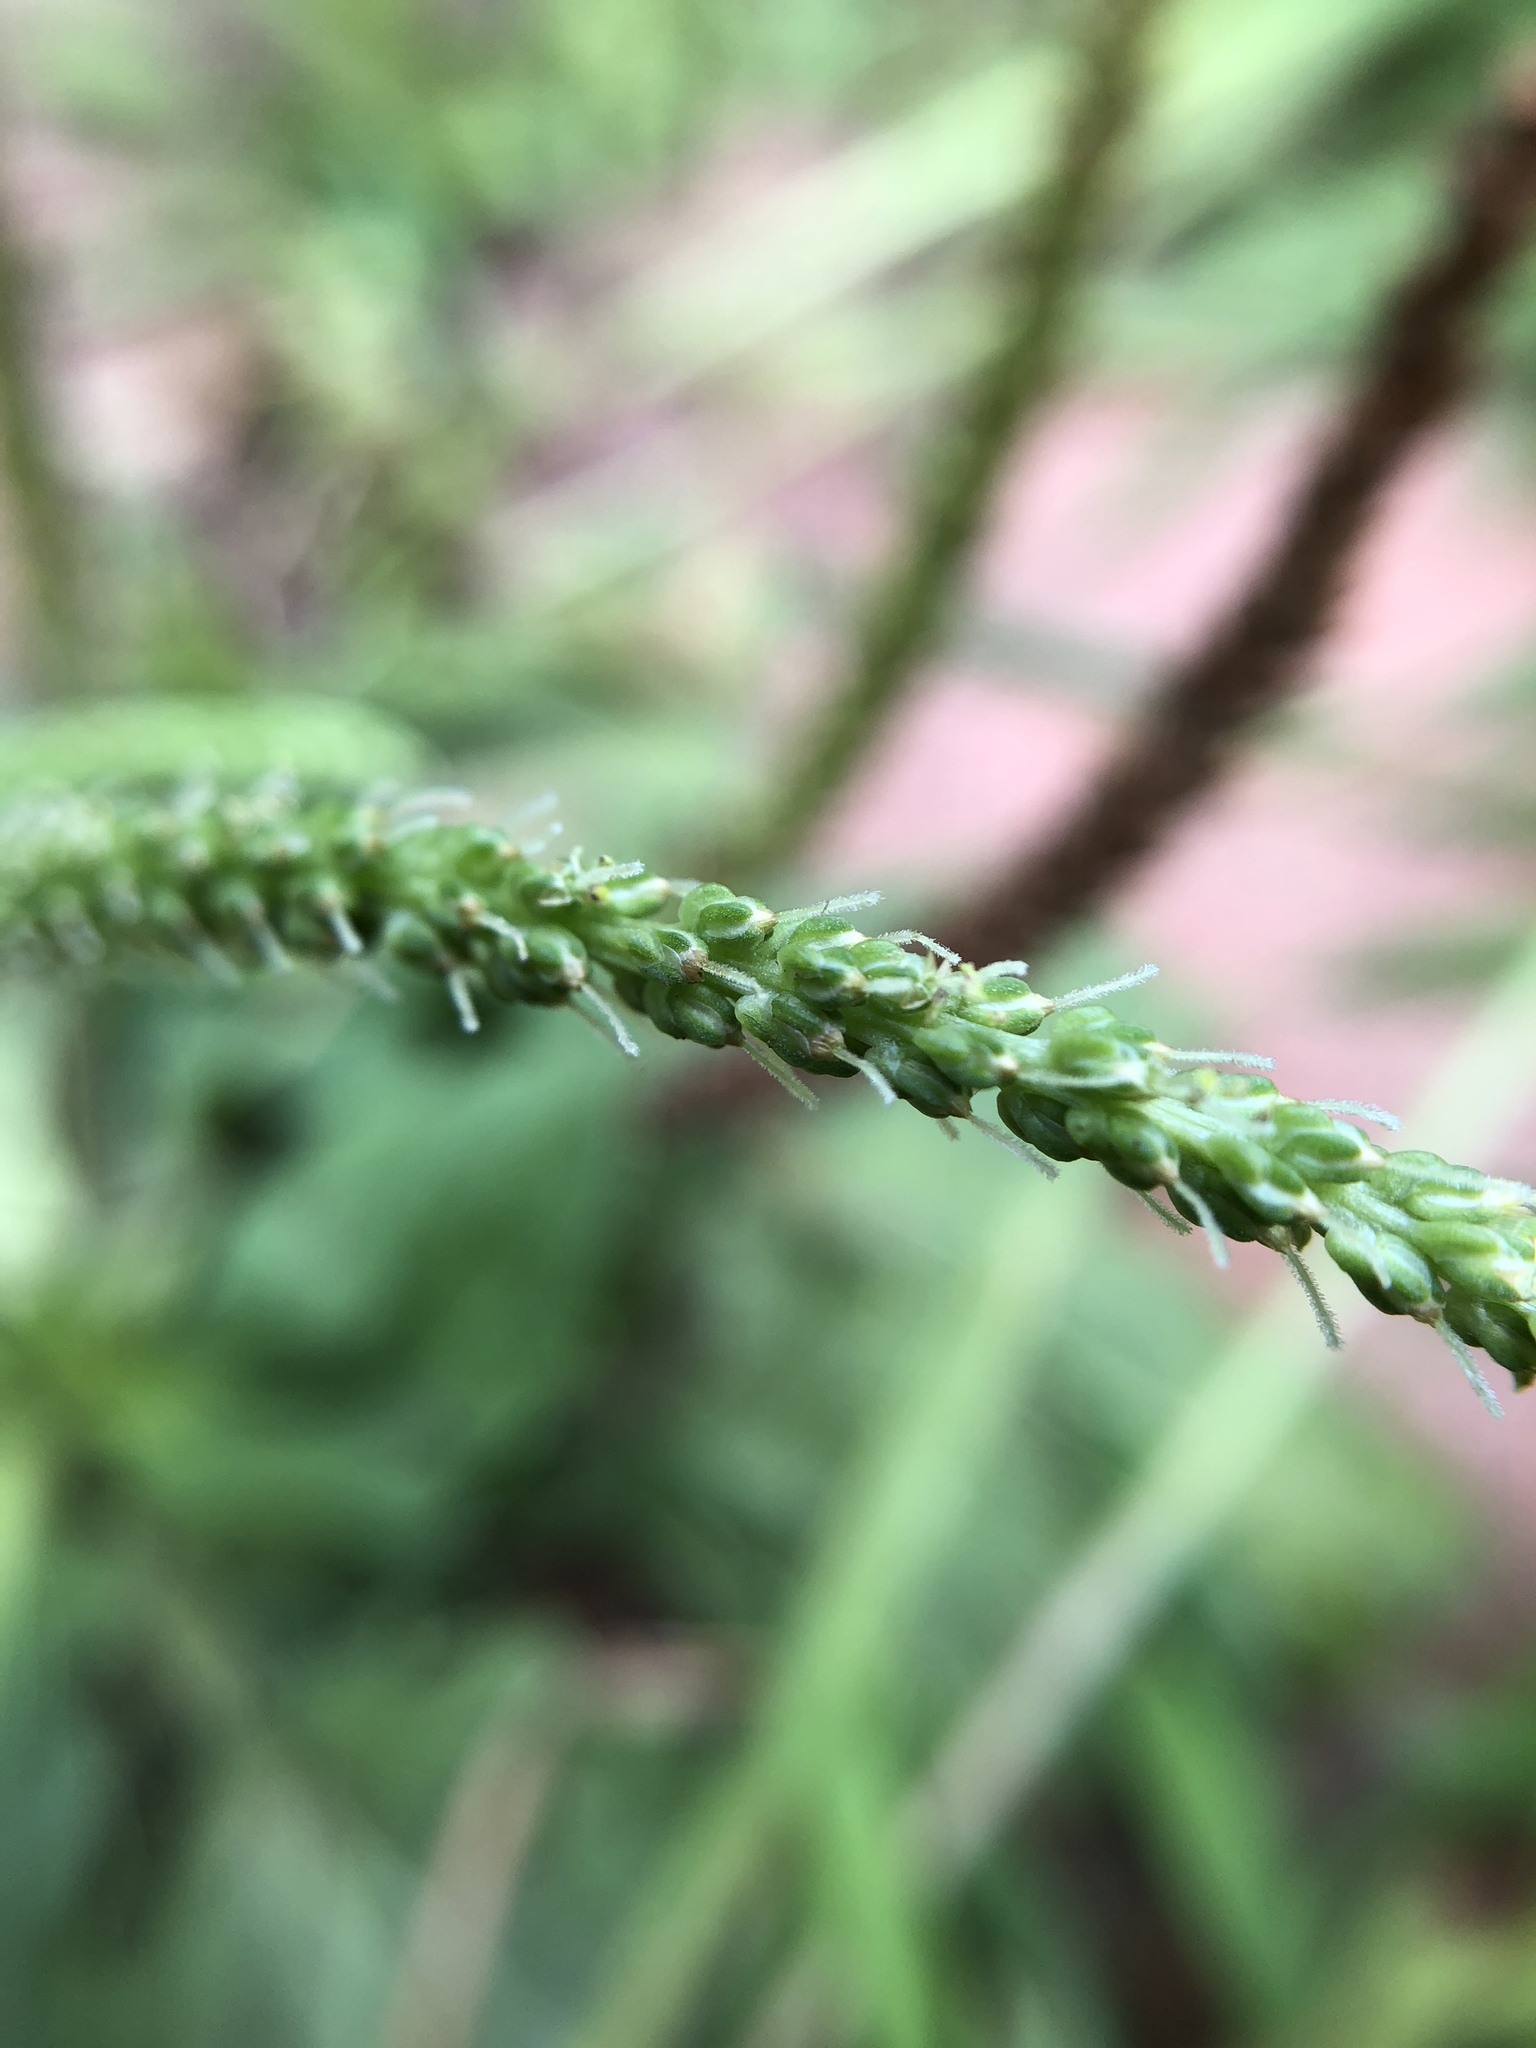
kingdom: Plantae
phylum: Tracheophyta
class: Magnoliopsida
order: Lamiales
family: Plantaginaceae
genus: Plantago
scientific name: Plantago major
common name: Common plantain
